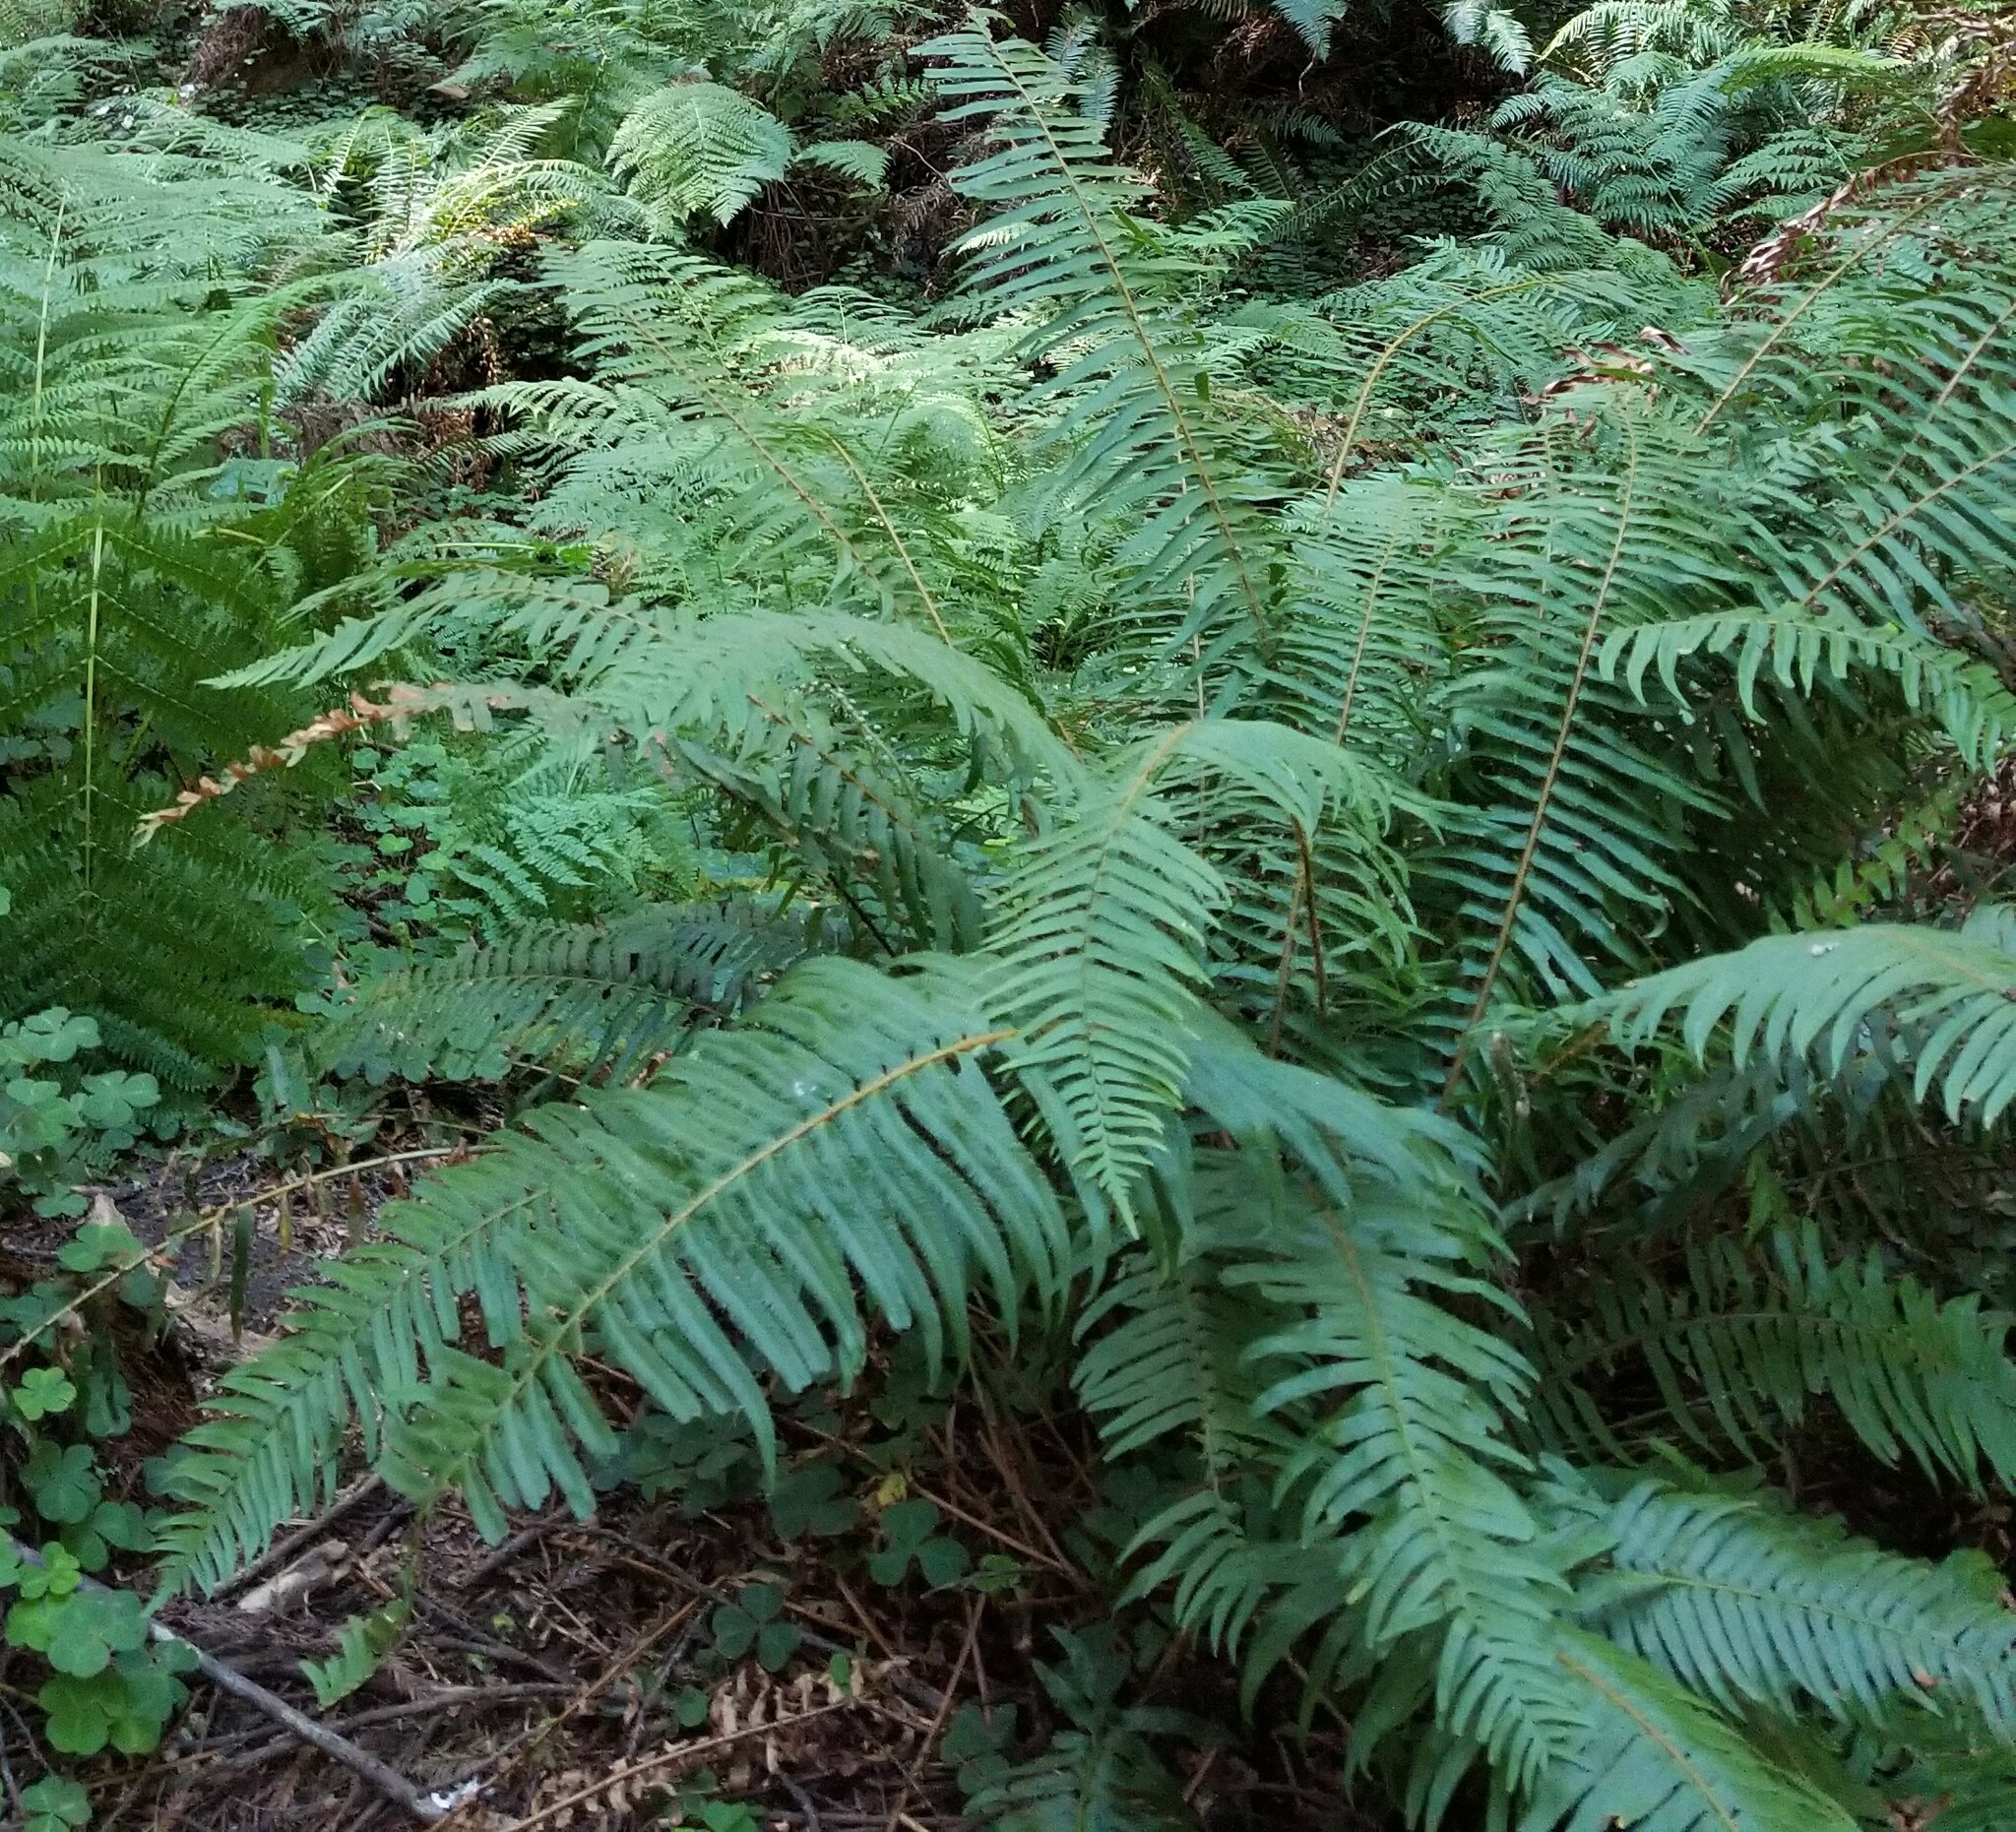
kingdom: Plantae
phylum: Tracheophyta
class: Polypodiopsida
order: Polypodiales
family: Dryopteridaceae
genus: Polystichum
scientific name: Polystichum munitum
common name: Western sword-fern
